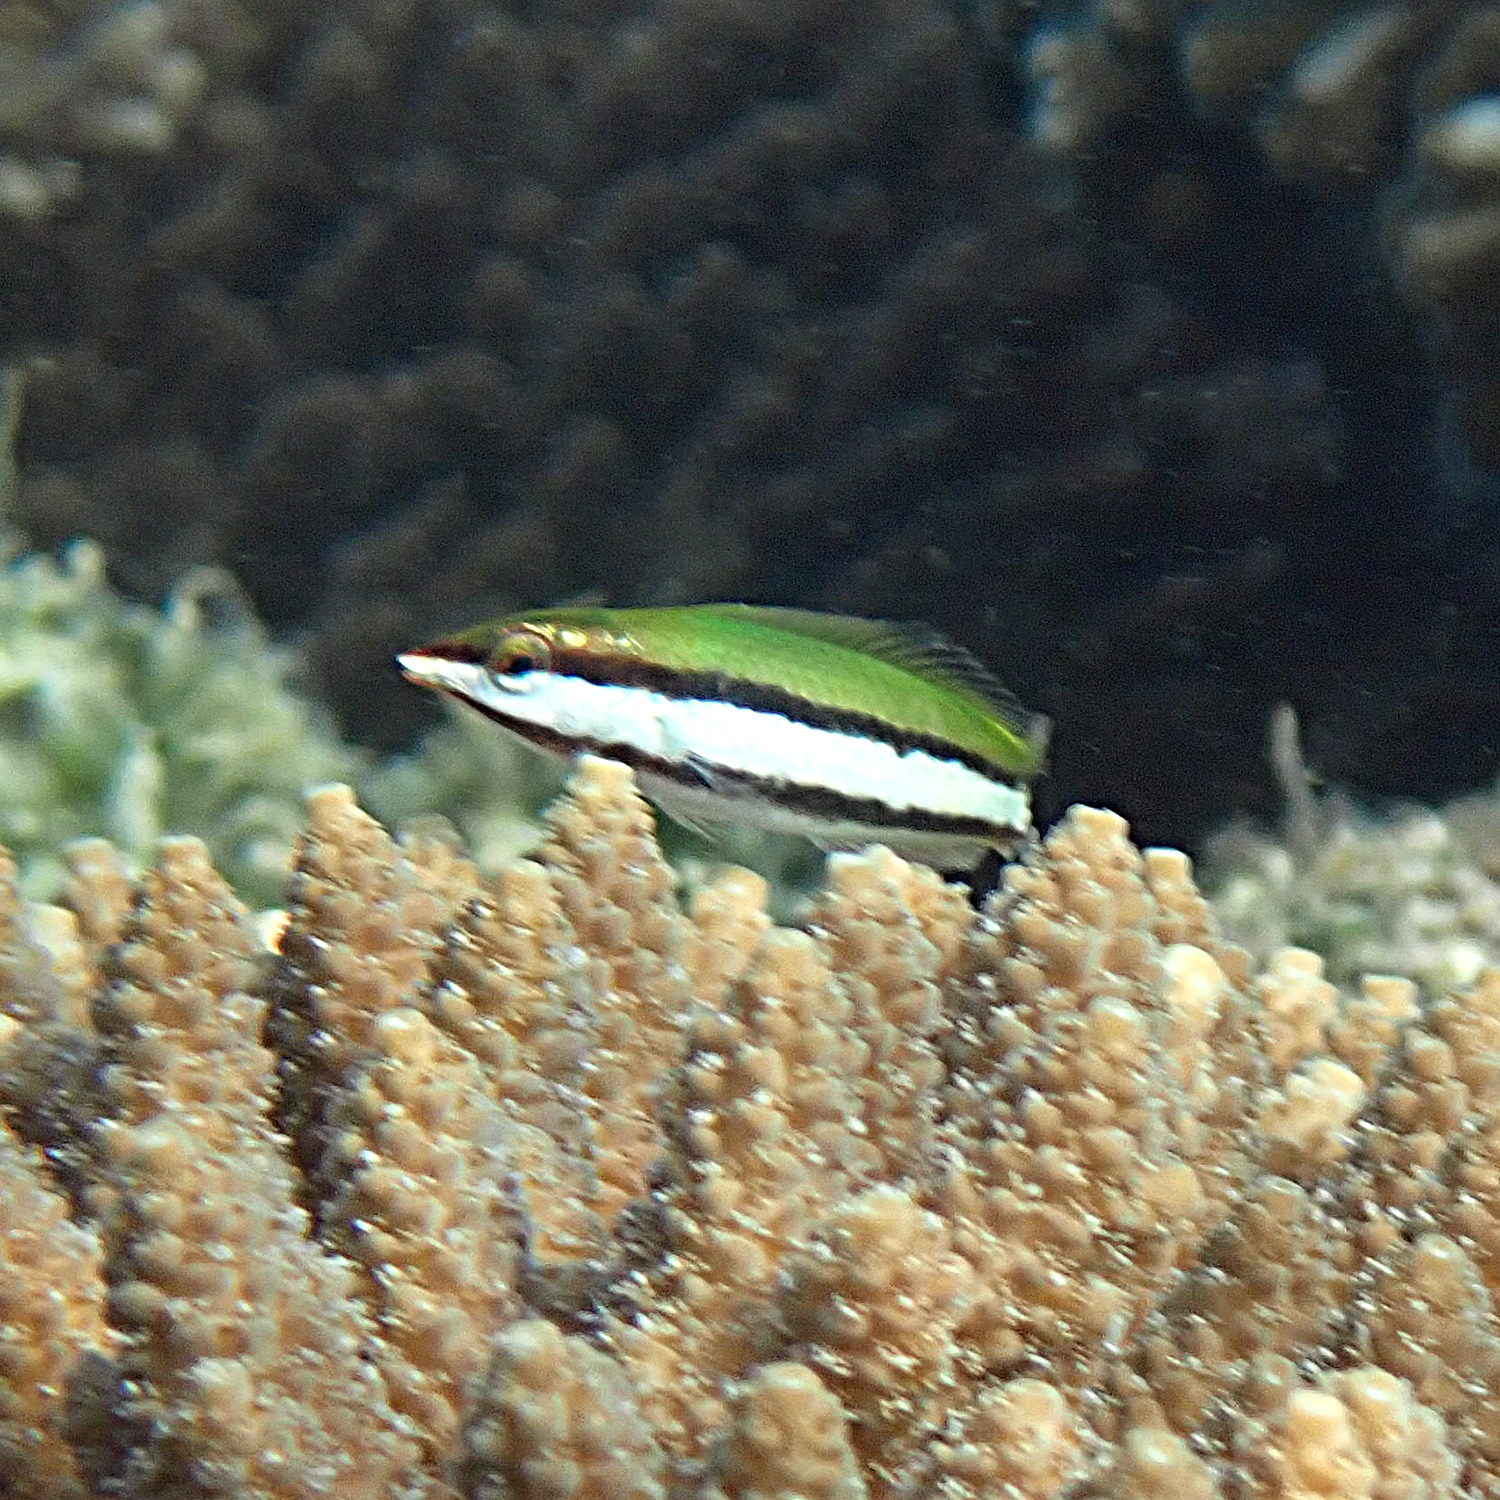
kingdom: Animalia
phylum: Chordata
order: Perciformes
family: Labridae
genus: Gomphosus
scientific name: Gomphosus varius
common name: Bird wrasse
